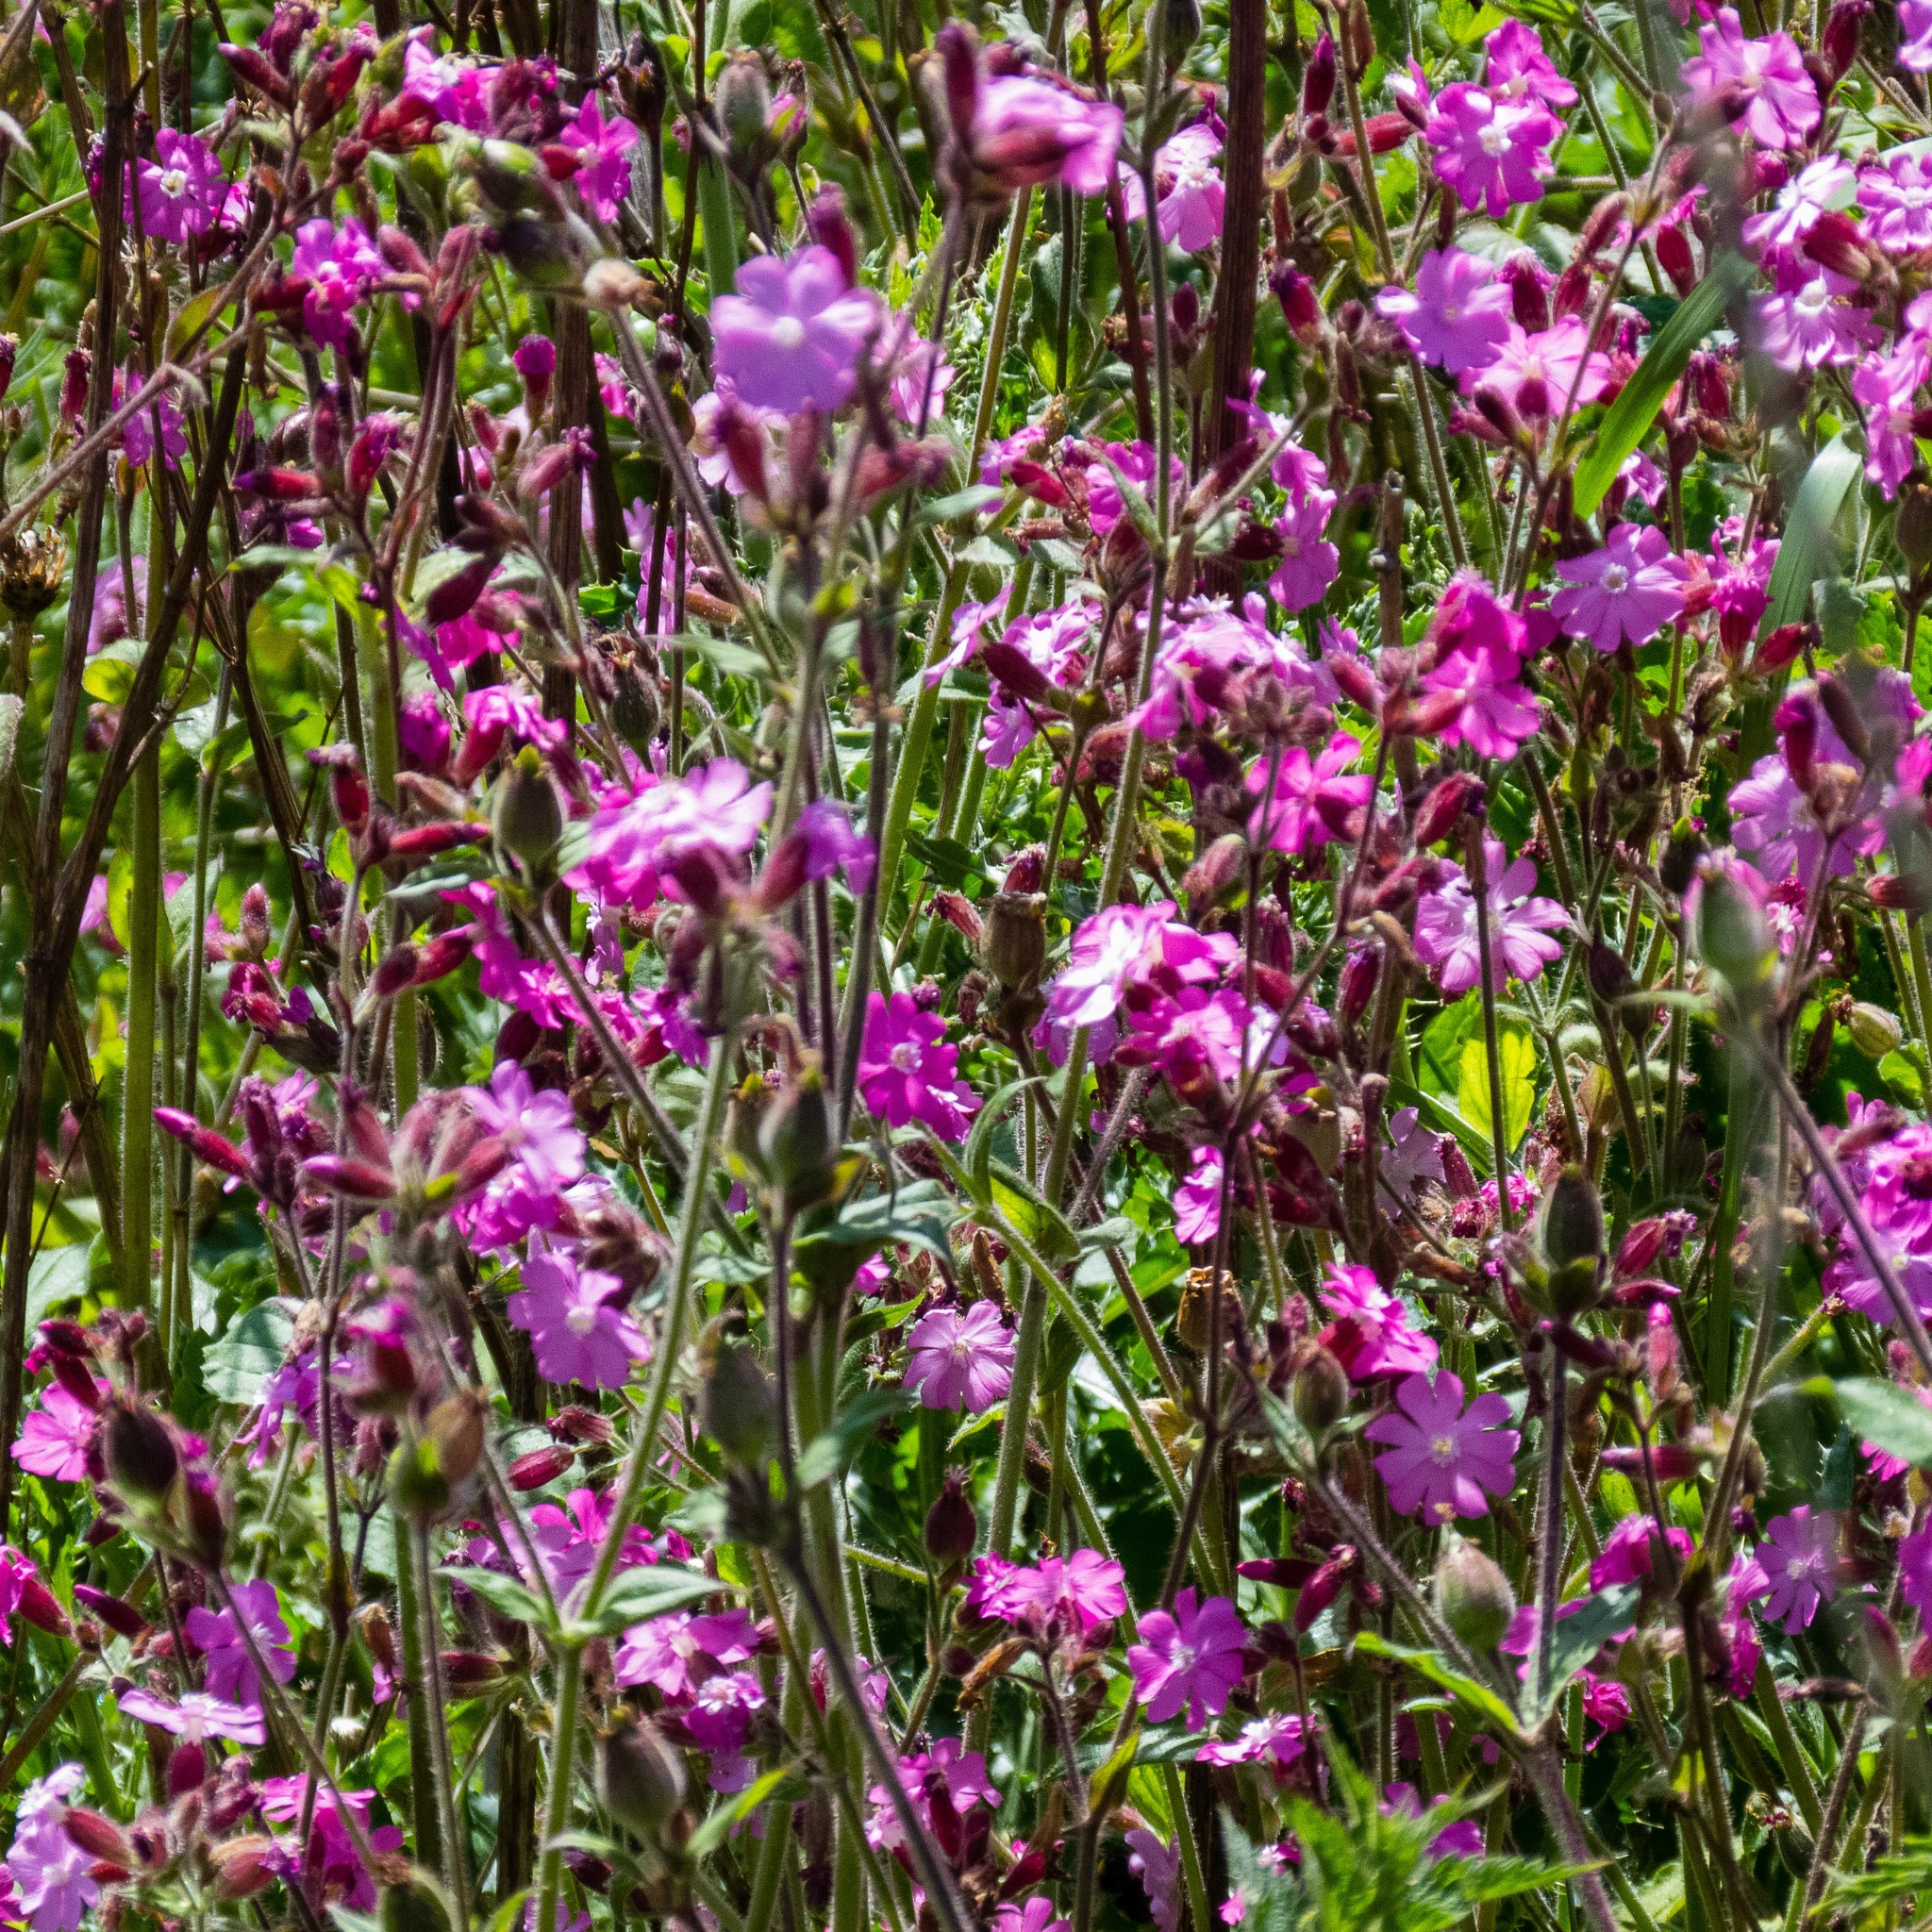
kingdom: Plantae
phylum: Tracheophyta
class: Magnoliopsida
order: Caryophyllales
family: Caryophyllaceae
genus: Silene
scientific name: Silene dioica
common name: Red campion
